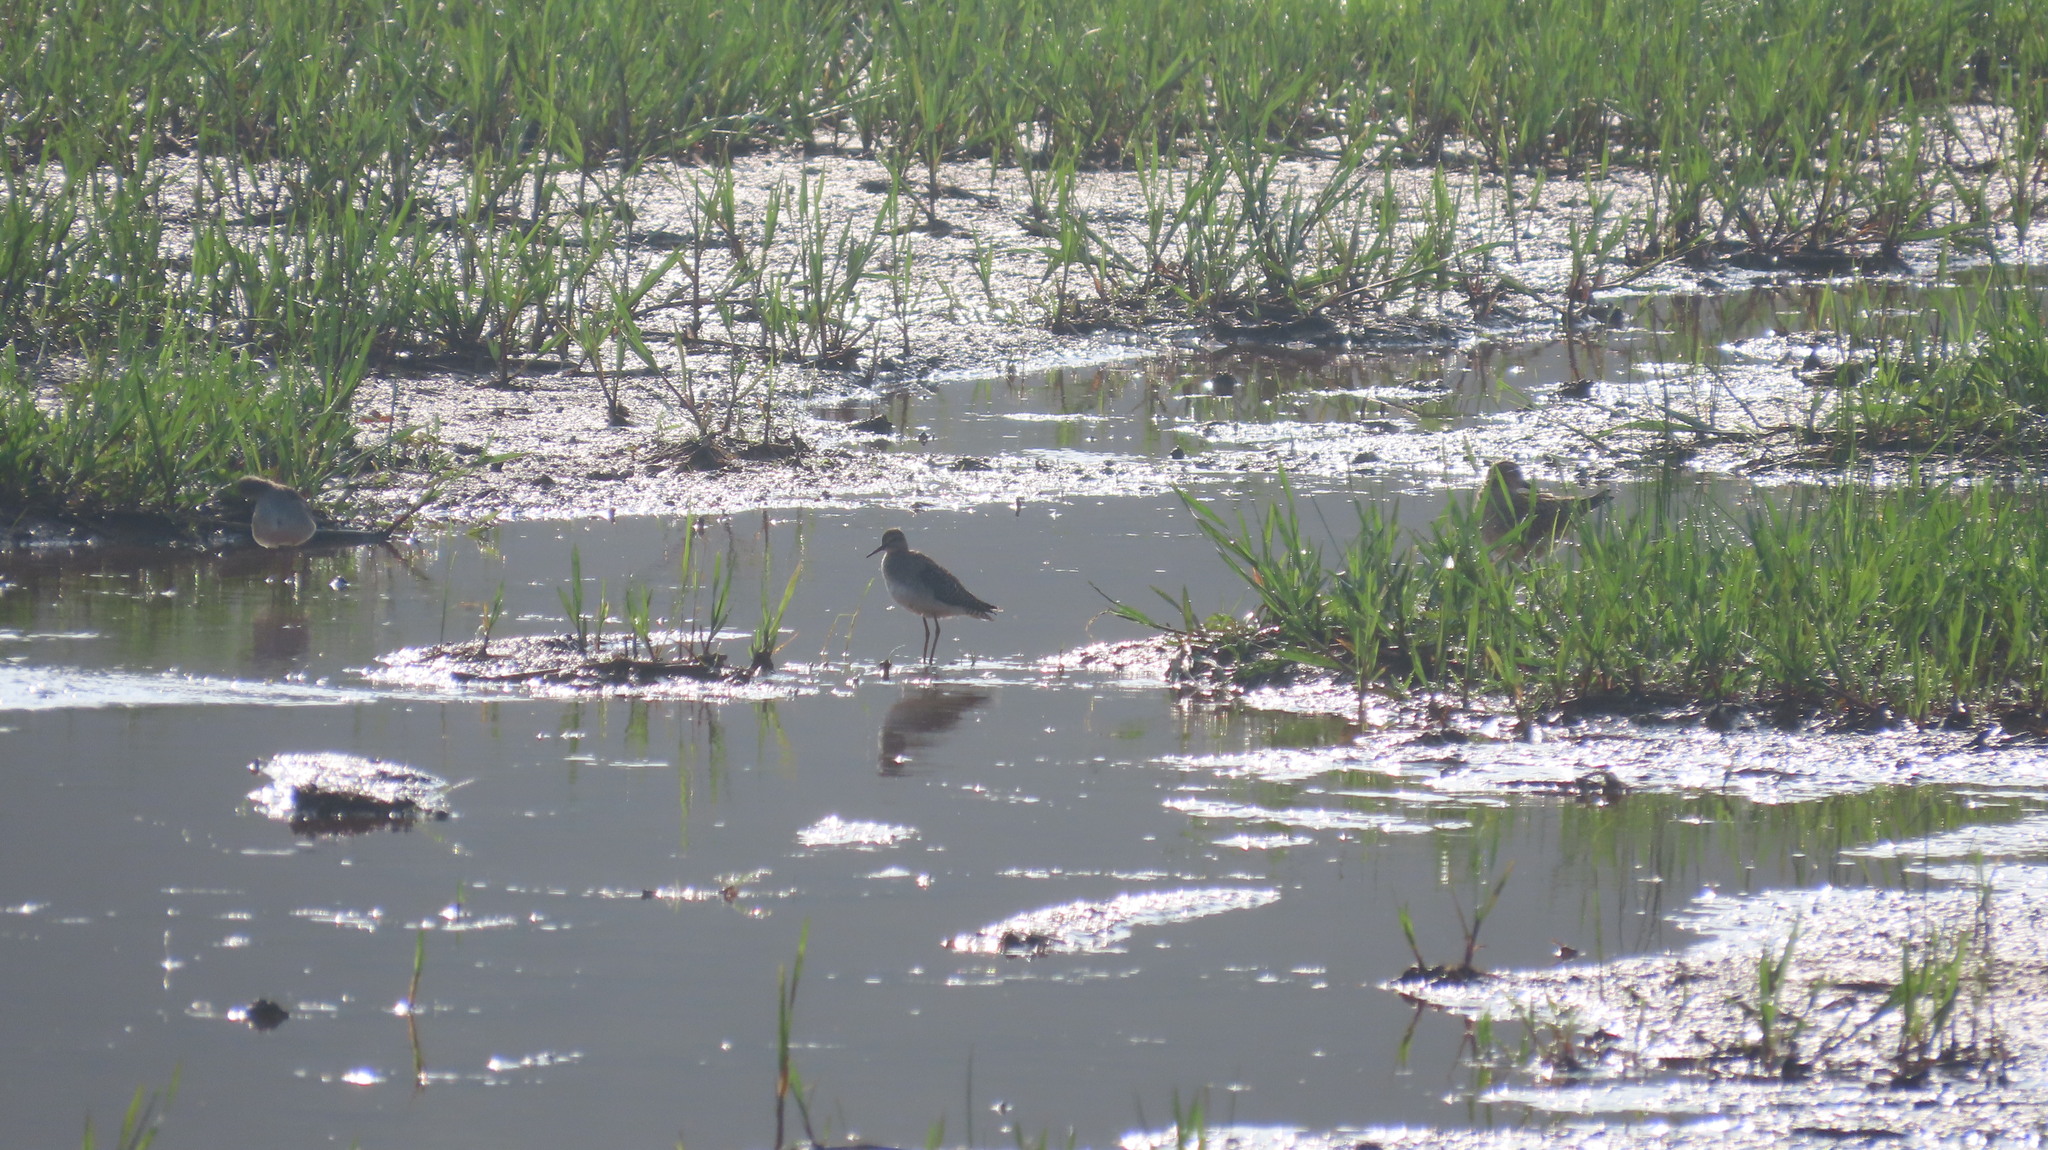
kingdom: Animalia
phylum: Chordata
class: Aves
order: Charadriiformes
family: Scolopacidae
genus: Tringa
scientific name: Tringa glareola
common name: Wood sandpiper
